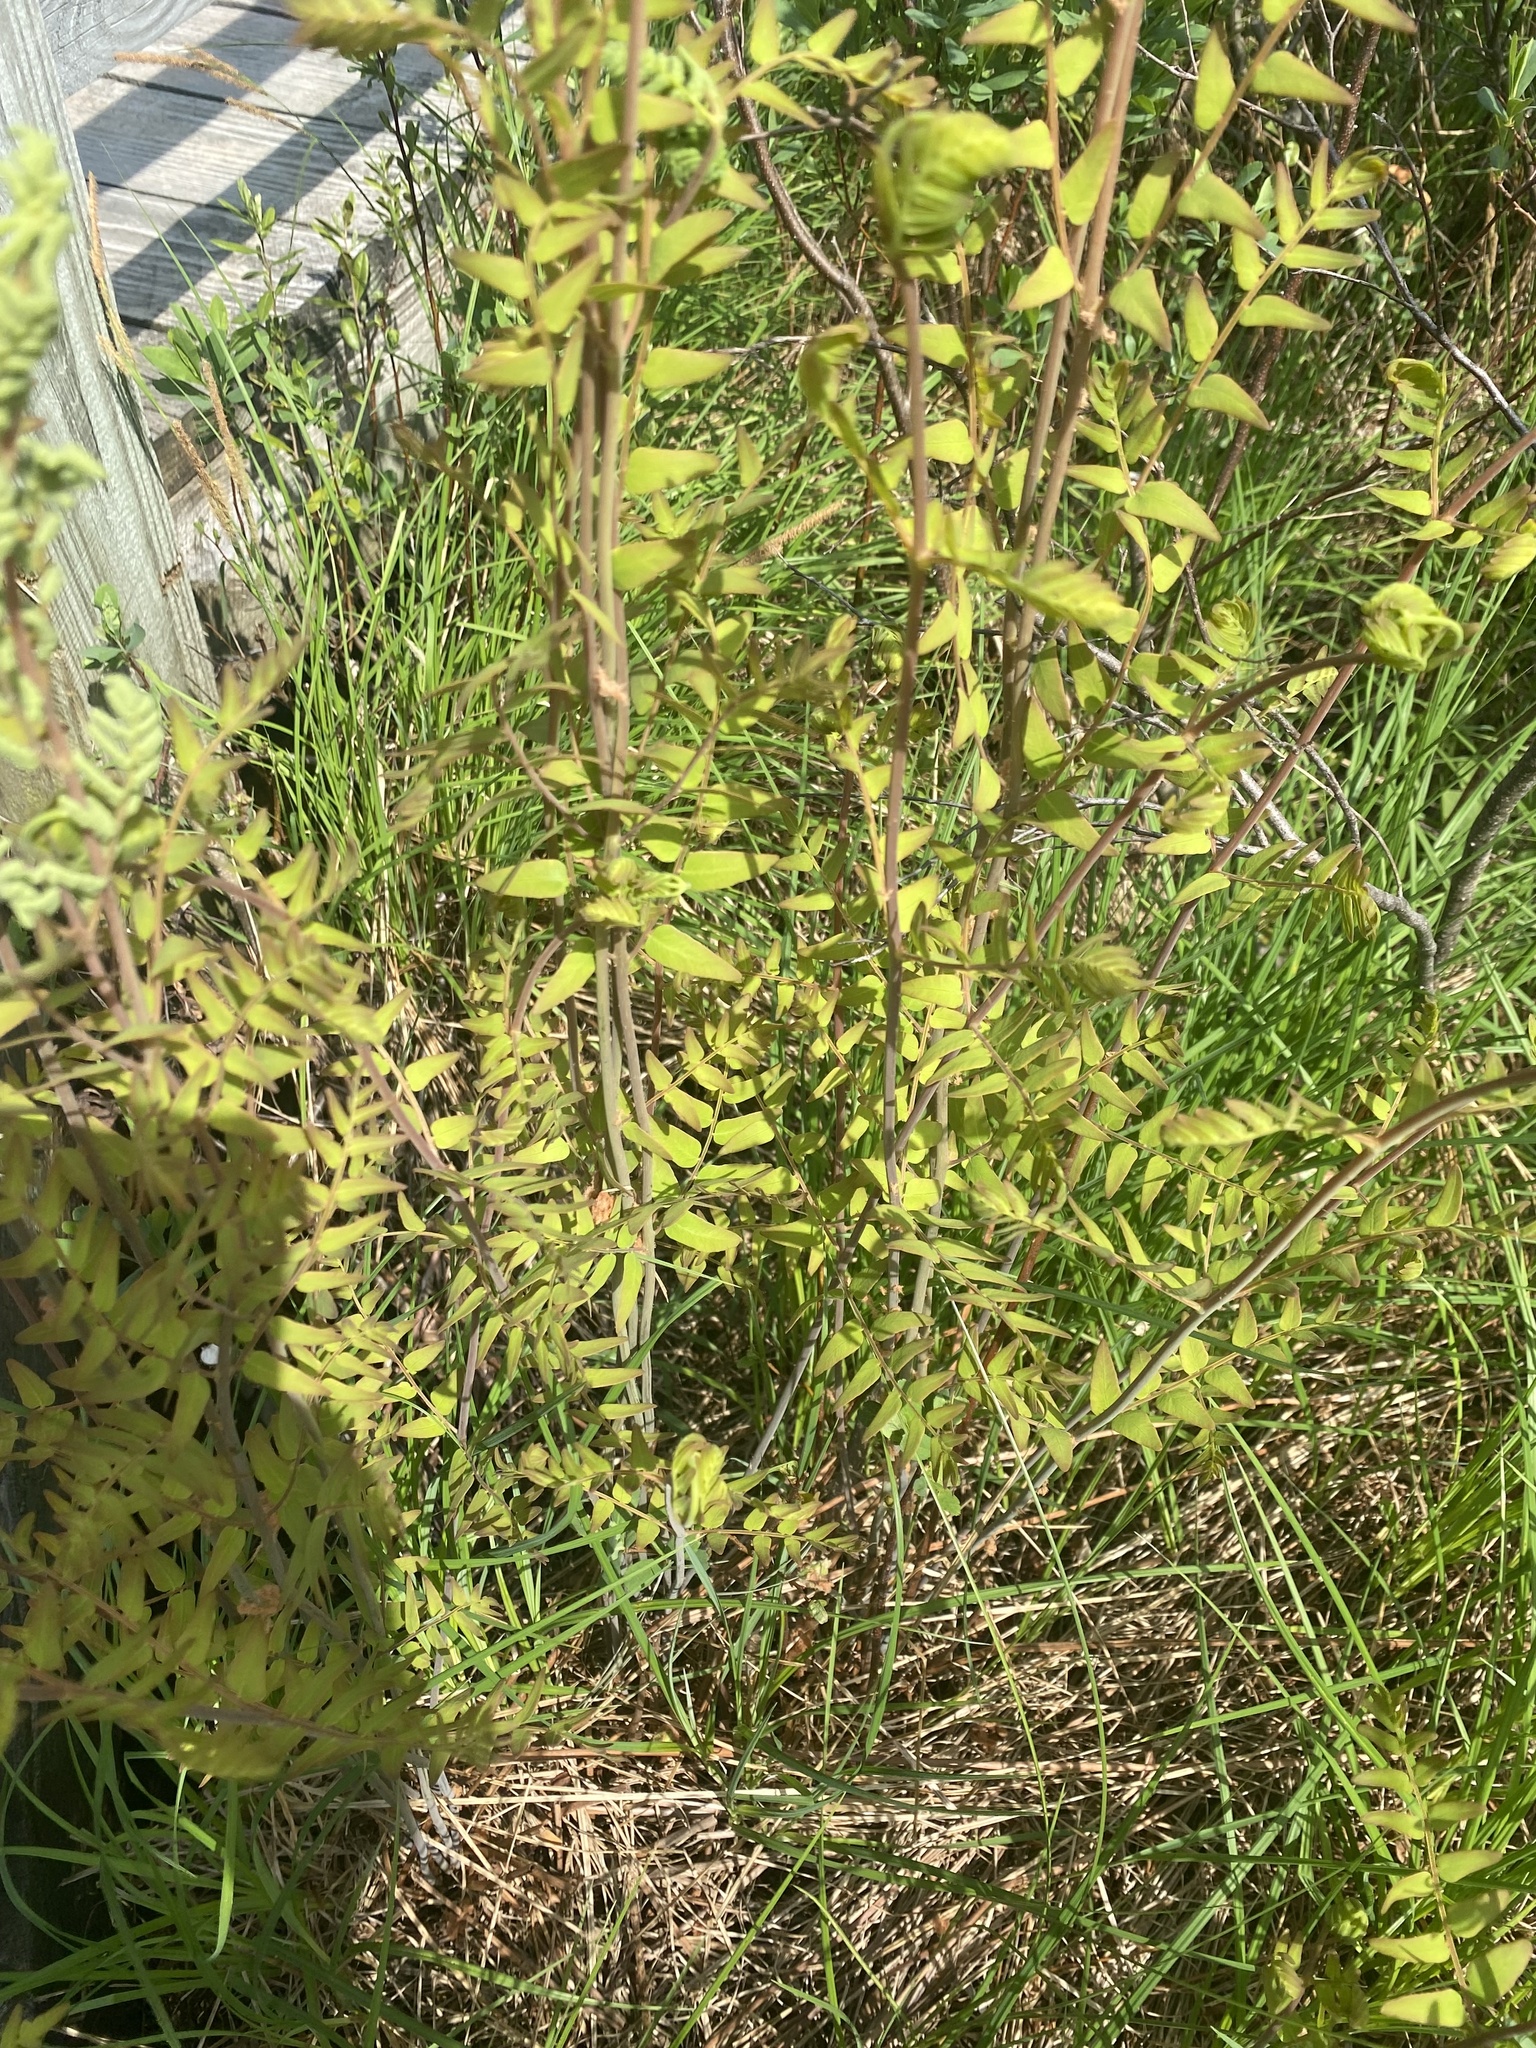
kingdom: Plantae
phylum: Tracheophyta
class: Polypodiopsida
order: Osmundales
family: Osmundaceae
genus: Osmunda
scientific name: Osmunda spectabilis
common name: American royal fern
